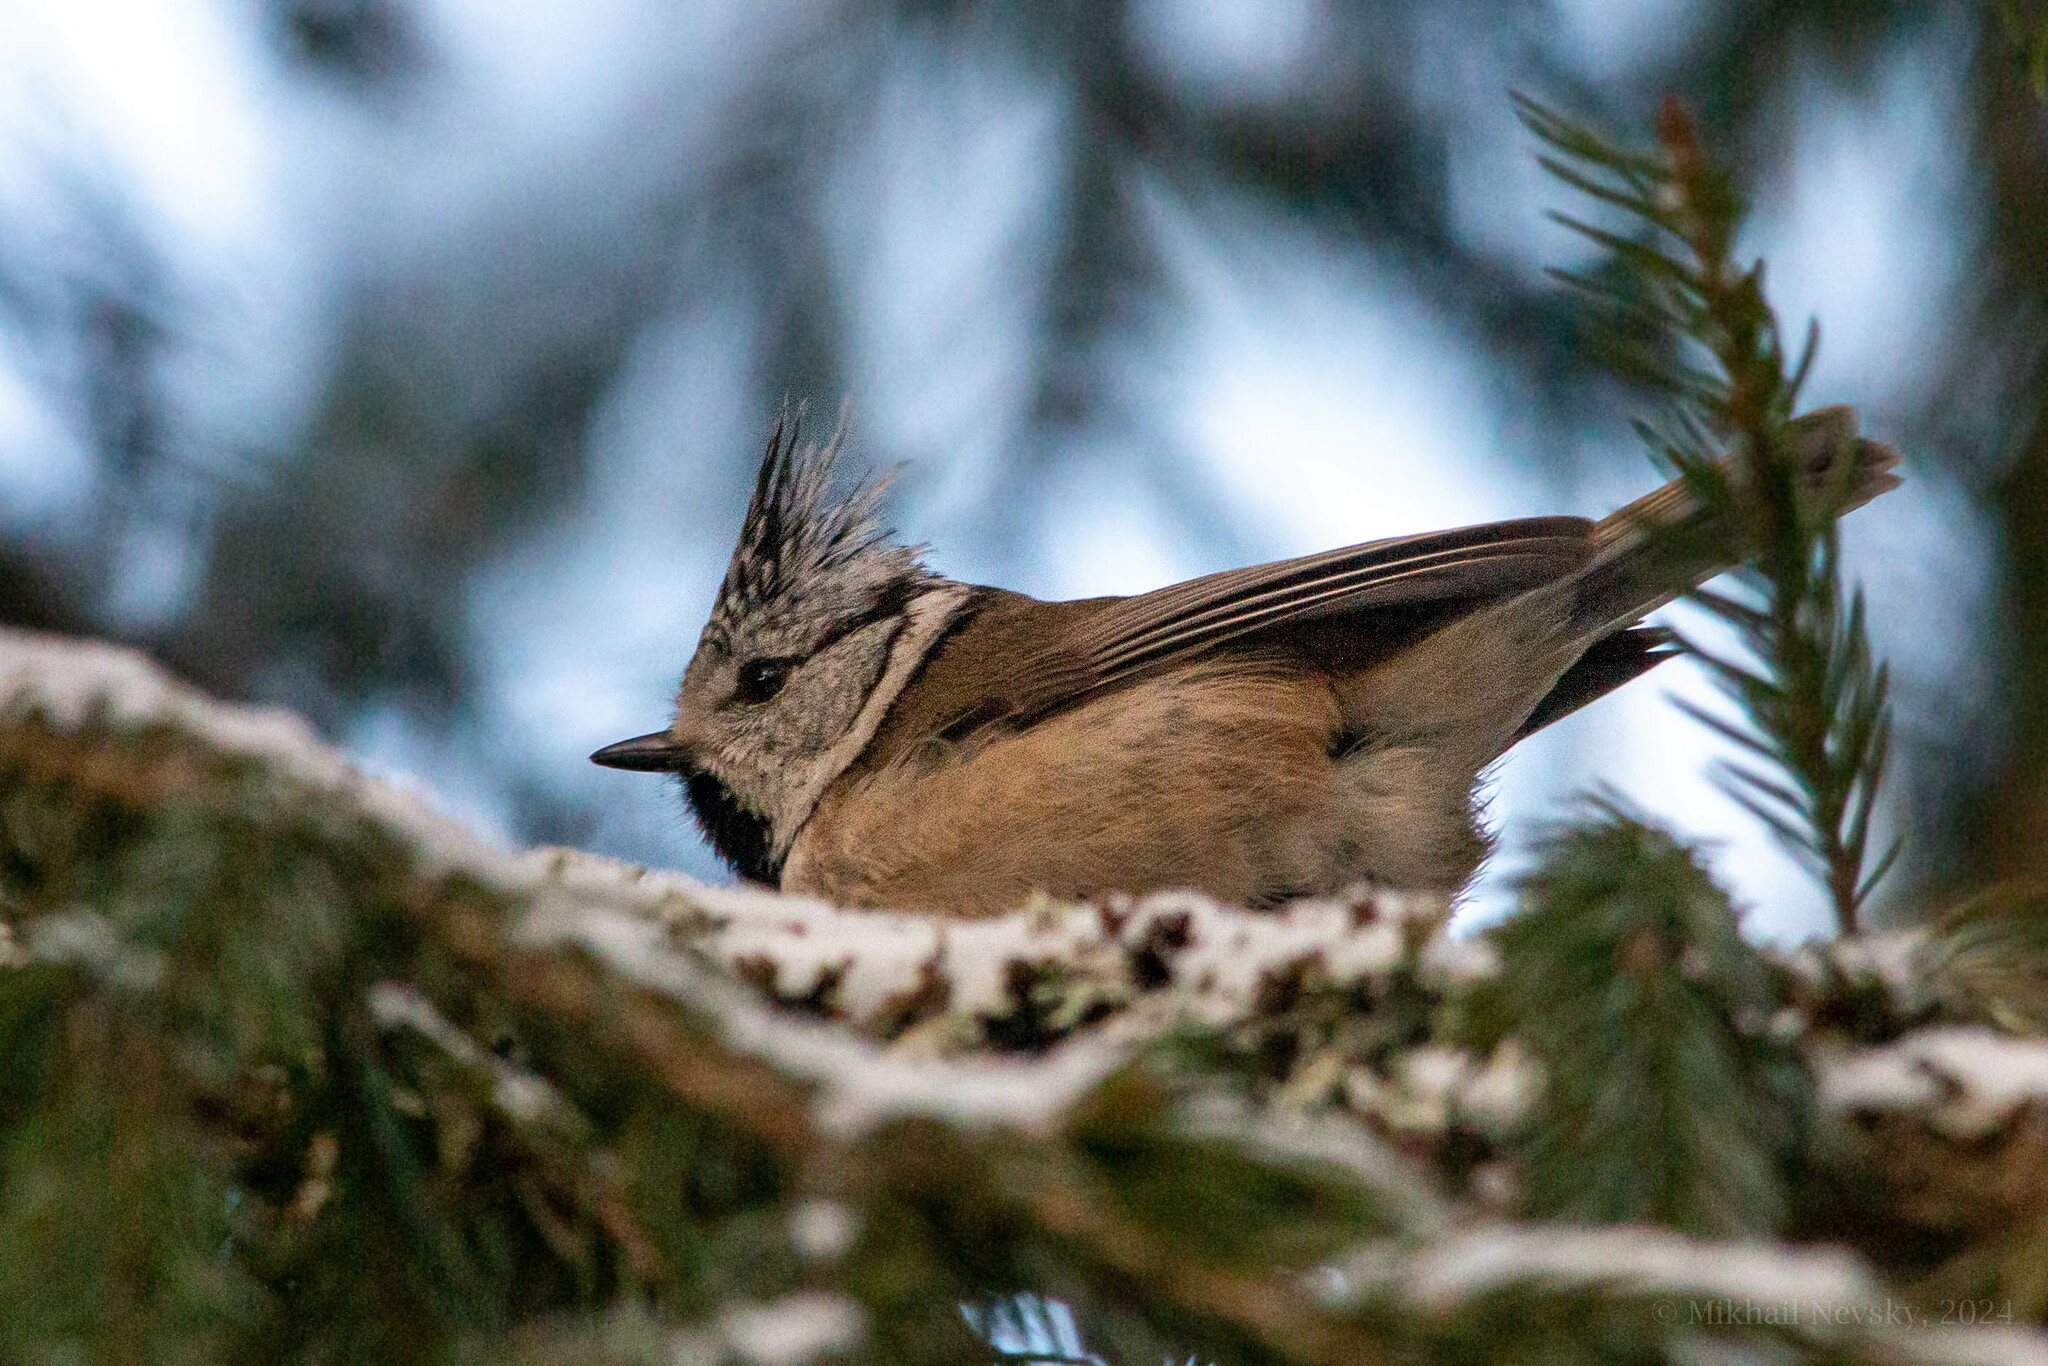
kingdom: Animalia
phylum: Chordata
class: Aves
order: Passeriformes
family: Paridae
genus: Lophophanes
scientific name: Lophophanes cristatus
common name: European crested tit
